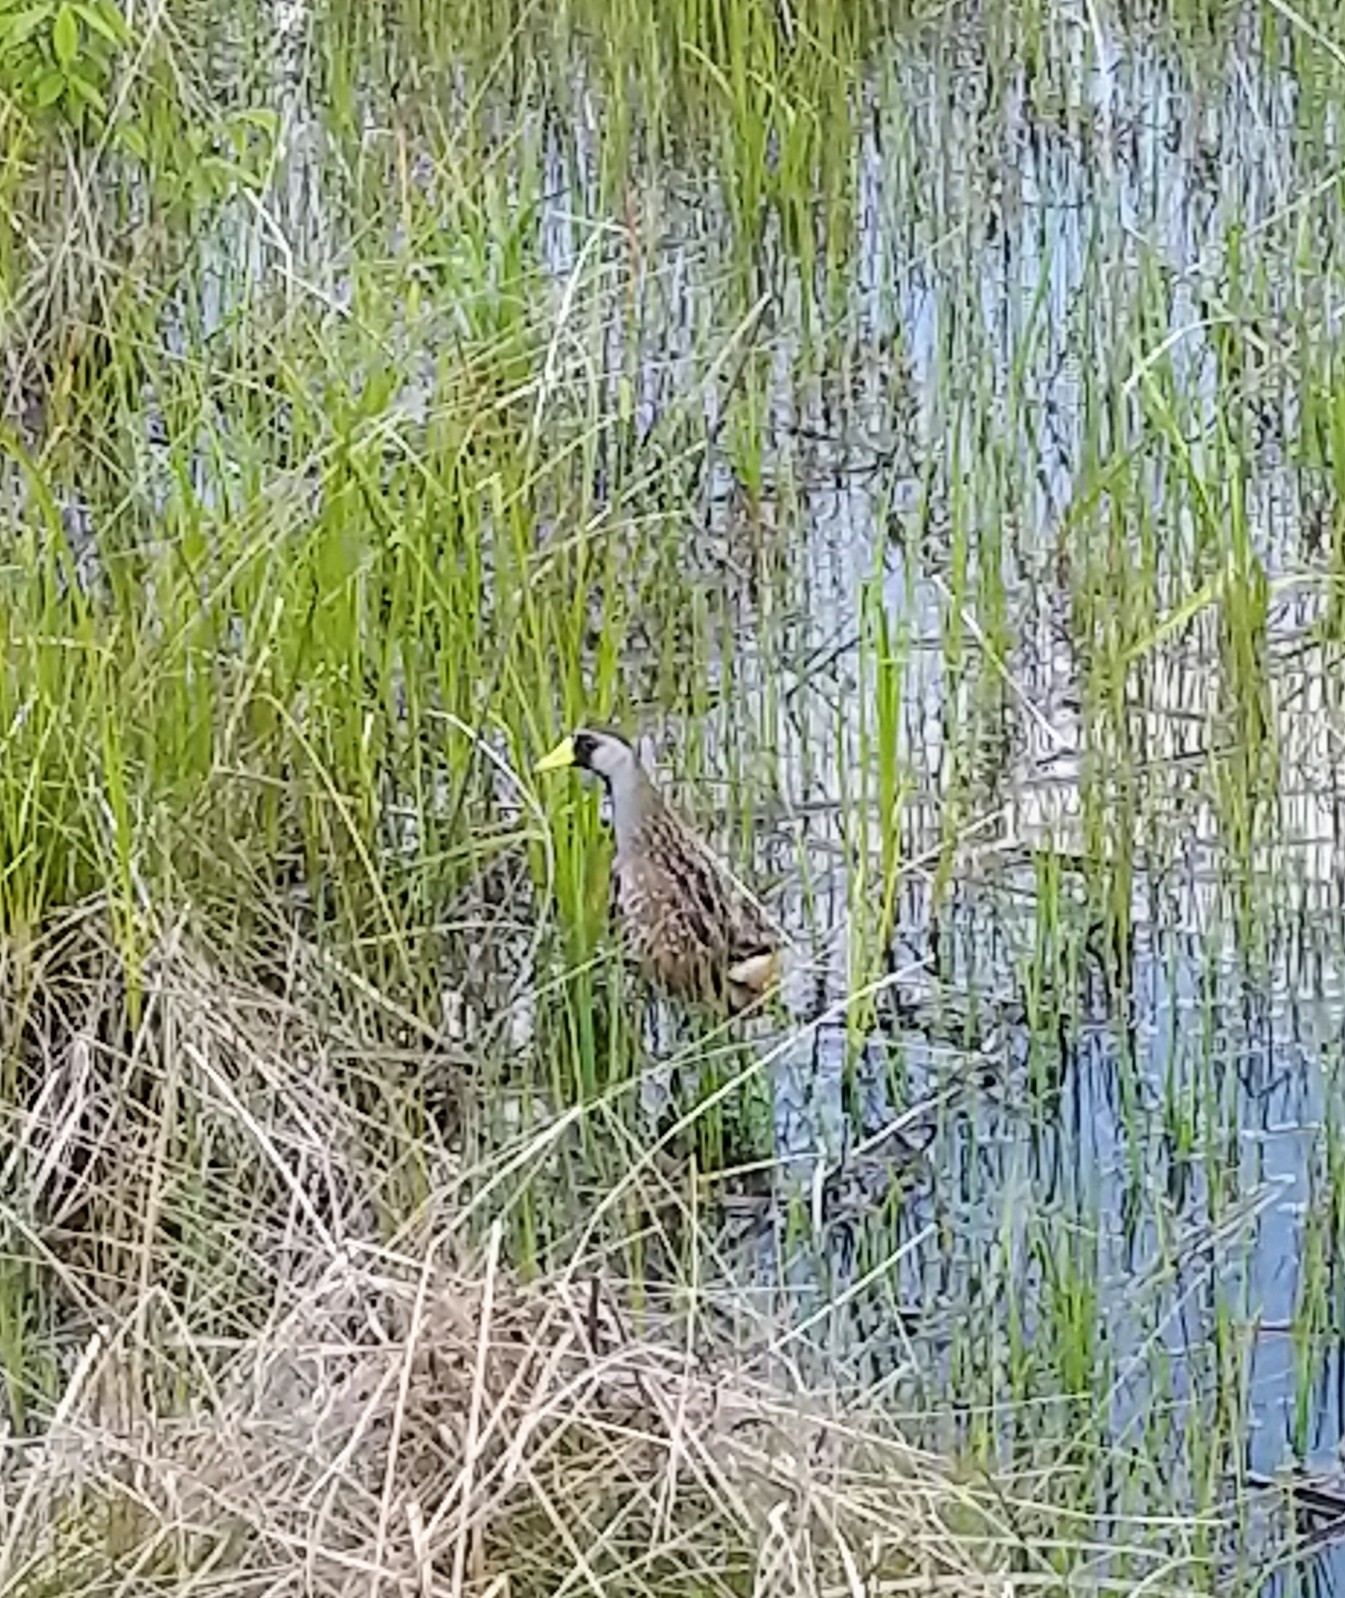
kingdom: Animalia
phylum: Chordata
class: Aves
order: Gruiformes
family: Rallidae
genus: Porzana
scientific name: Porzana carolina
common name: Sora
